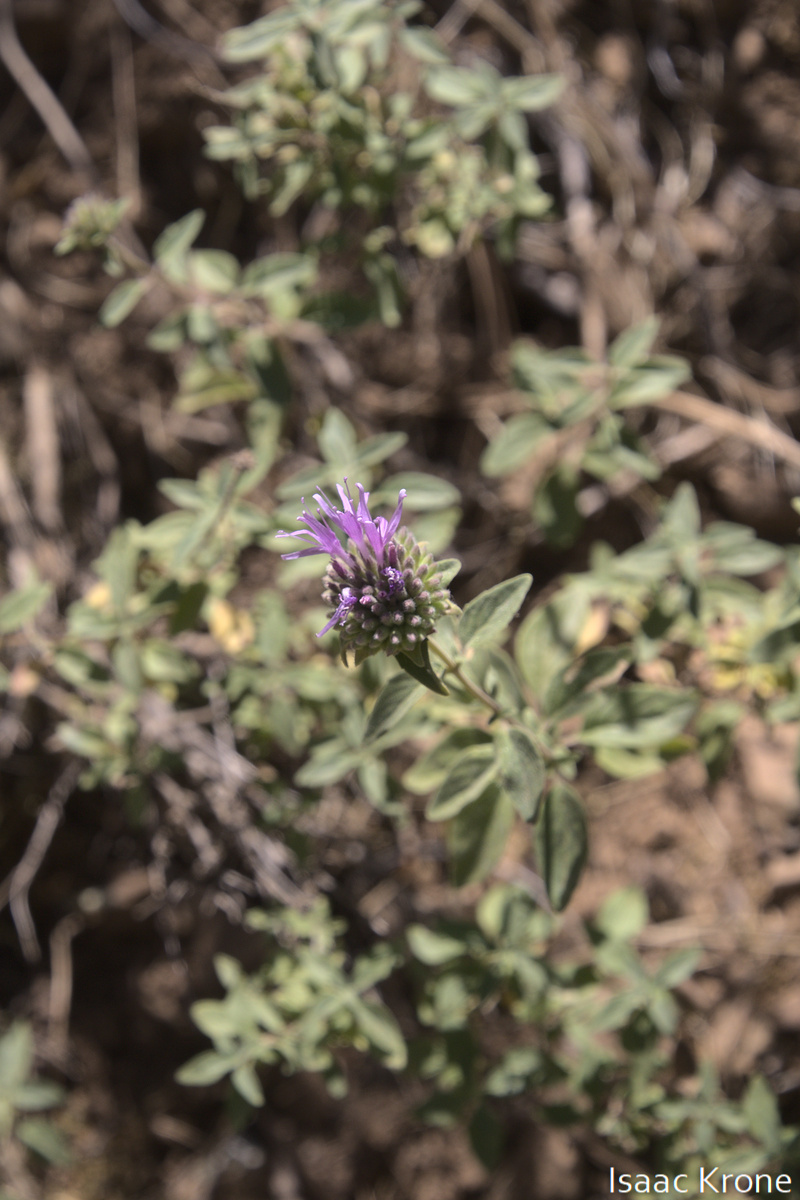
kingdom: Plantae
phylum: Tracheophyta
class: Magnoliopsida
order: Lamiales
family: Lamiaceae
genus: Monardella
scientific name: Monardella odoratissima
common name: Pacific monardella
